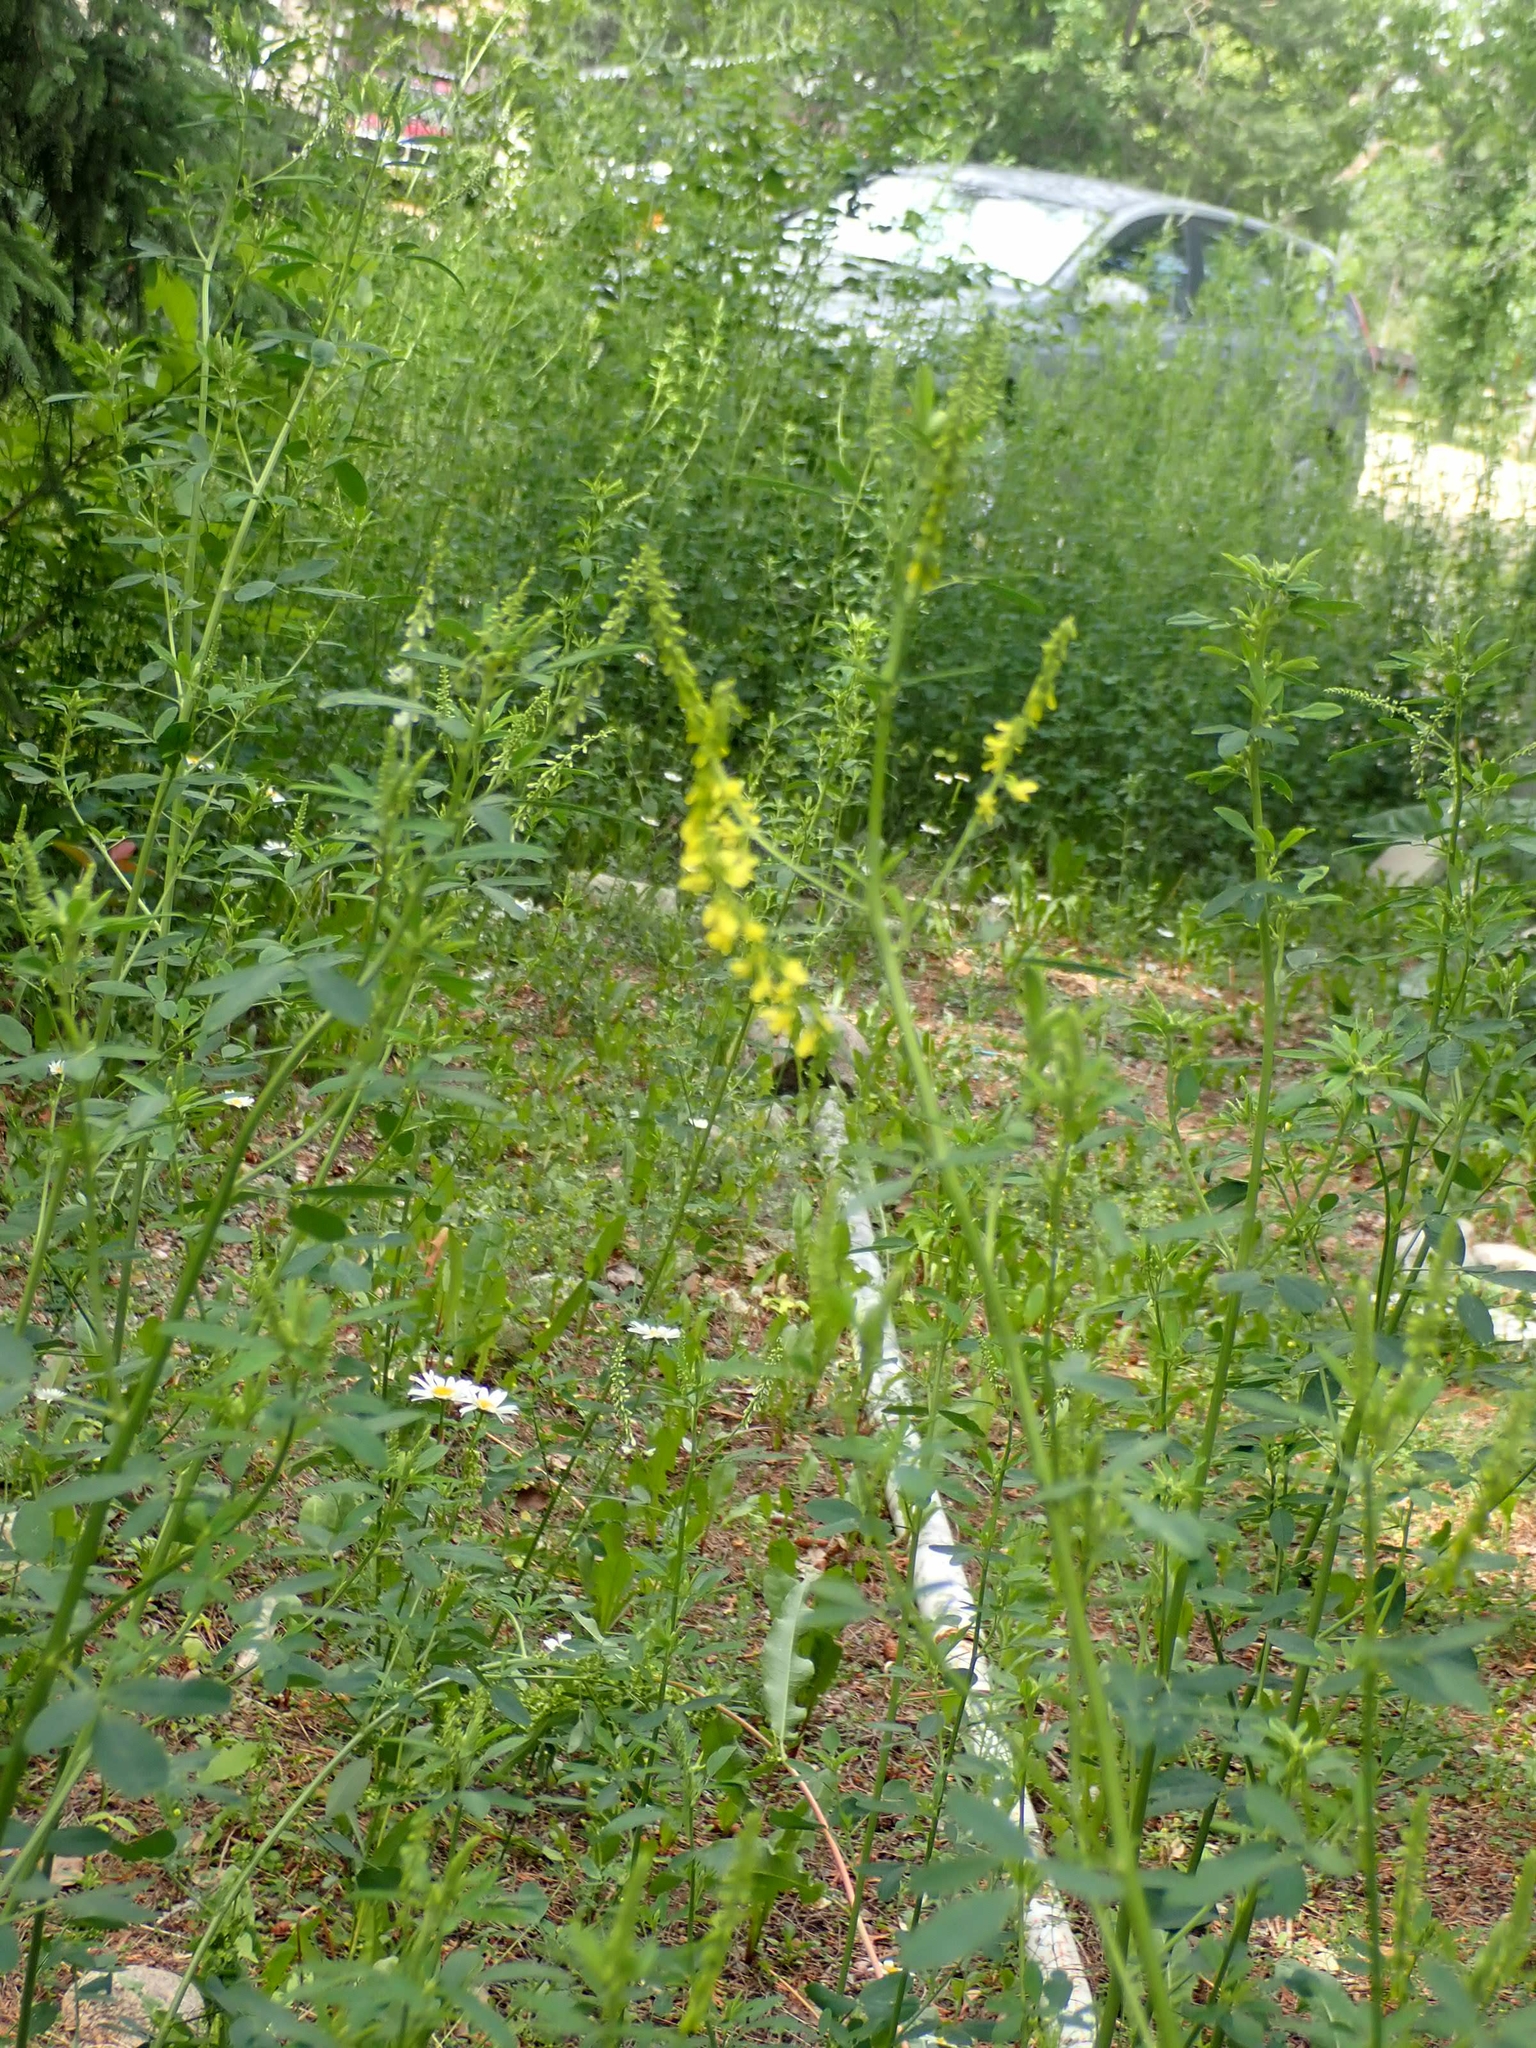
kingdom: Plantae
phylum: Tracheophyta
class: Magnoliopsida
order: Fabales
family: Fabaceae
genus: Melilotus
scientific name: Melilotus officinalis
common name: Sweetclover
